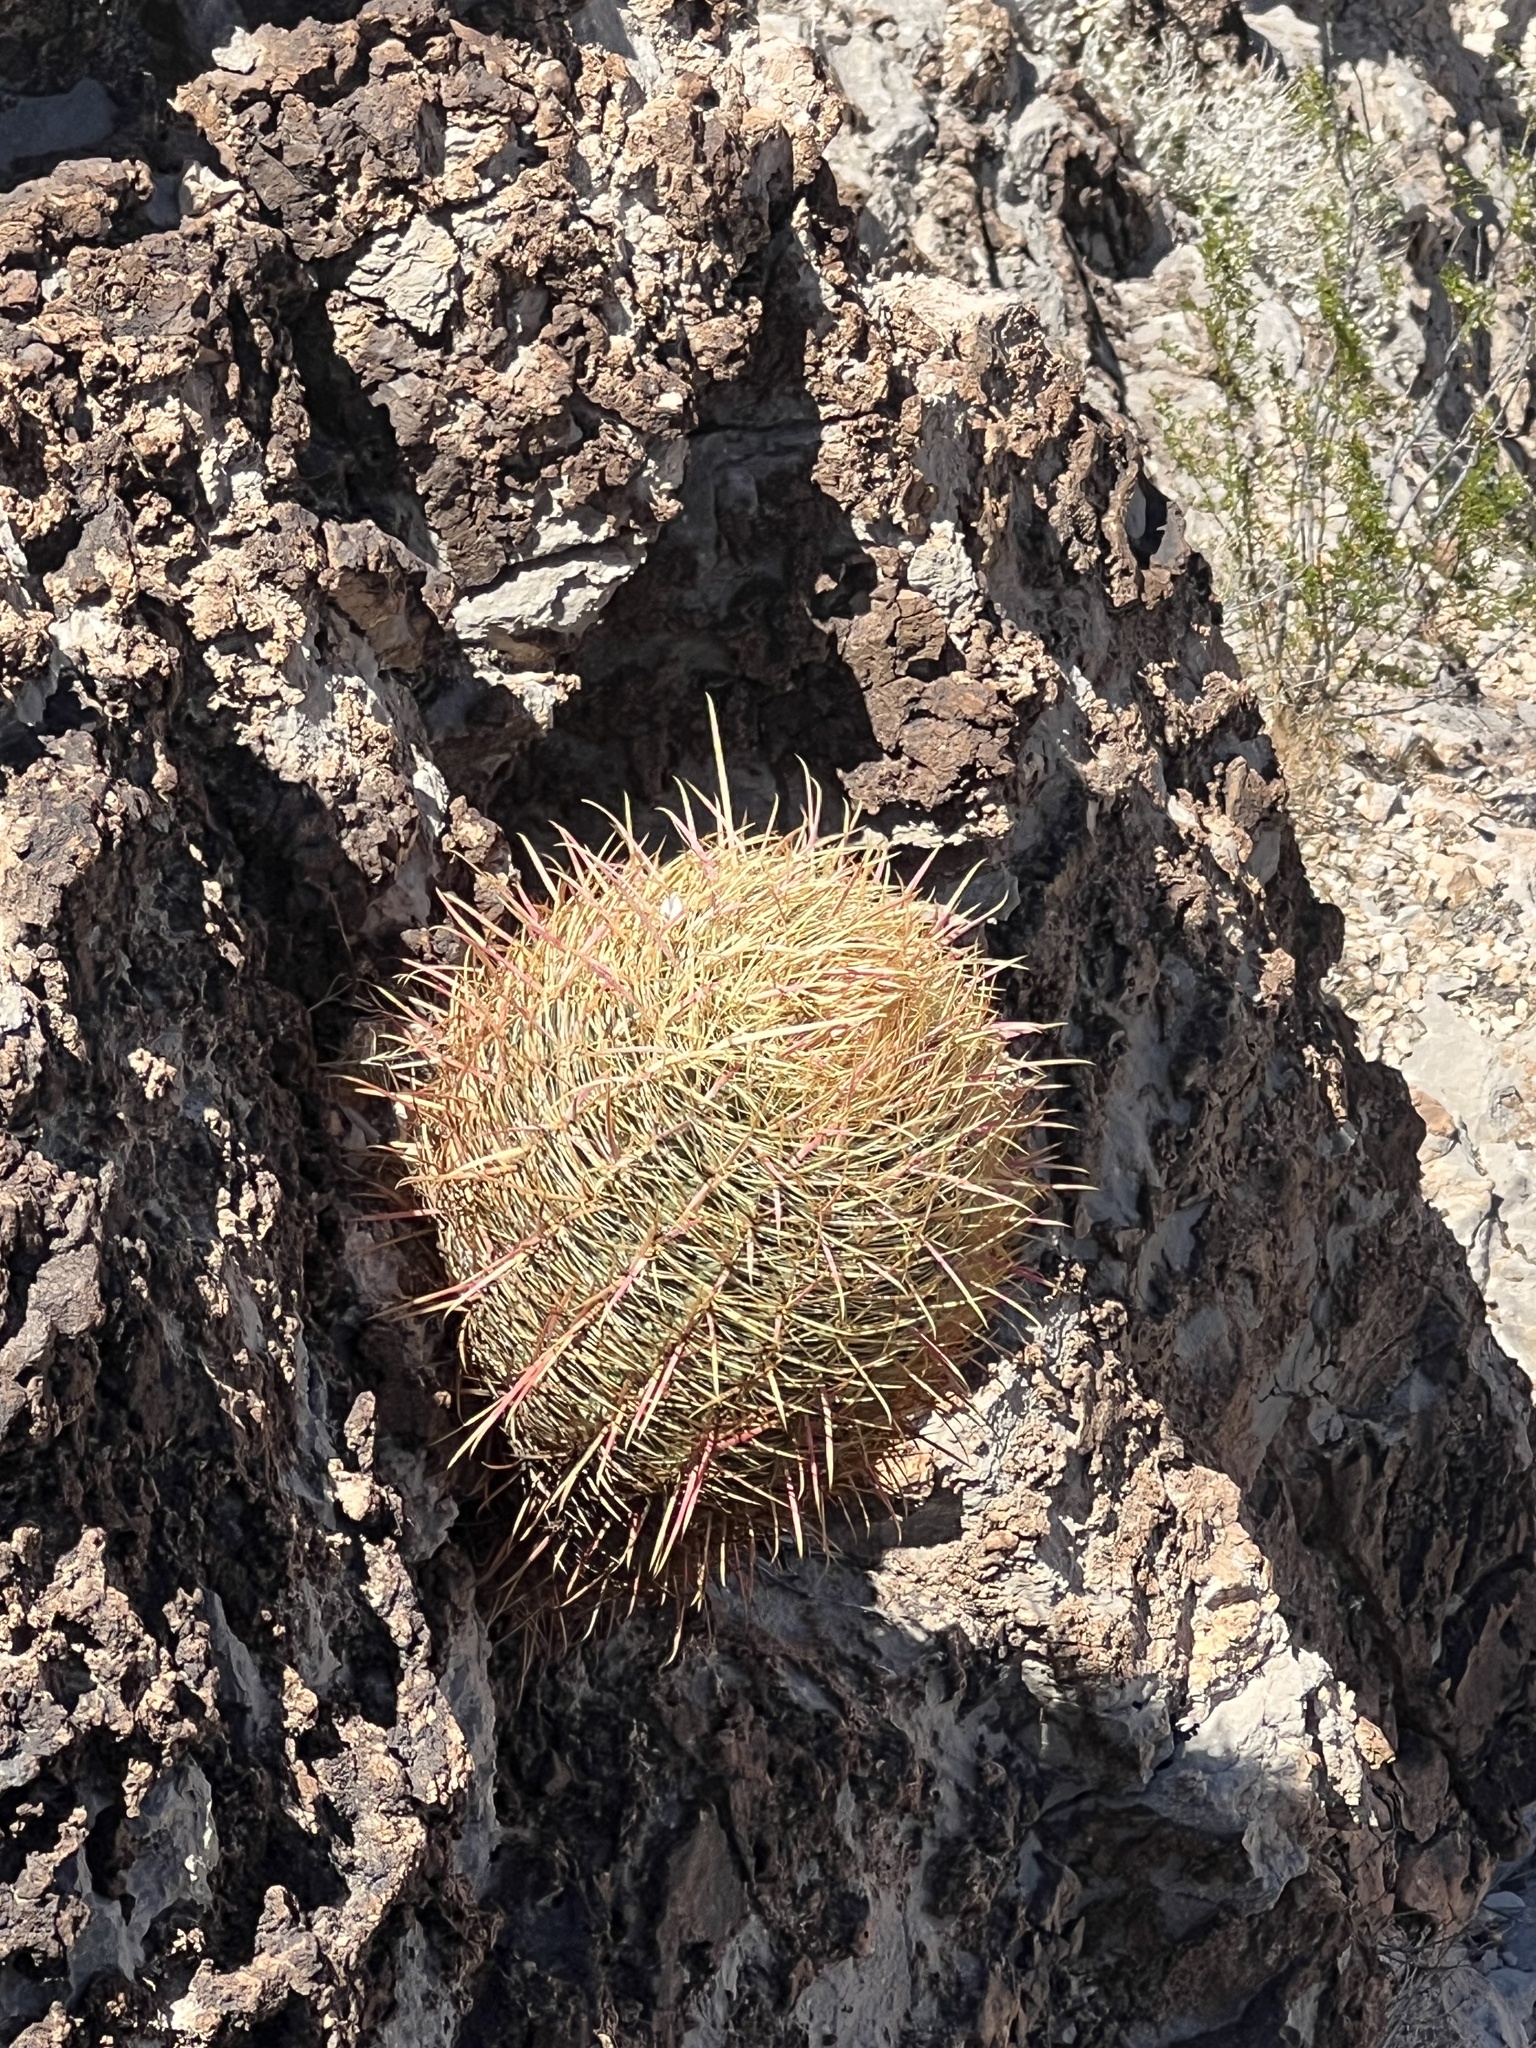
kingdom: Plantae
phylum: Tracheophyta
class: Magnoliopsida
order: Caryophyllales
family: Cactaceae
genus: Ferocactus
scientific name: Ferocactus cylindraceus
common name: California barrel cactus
